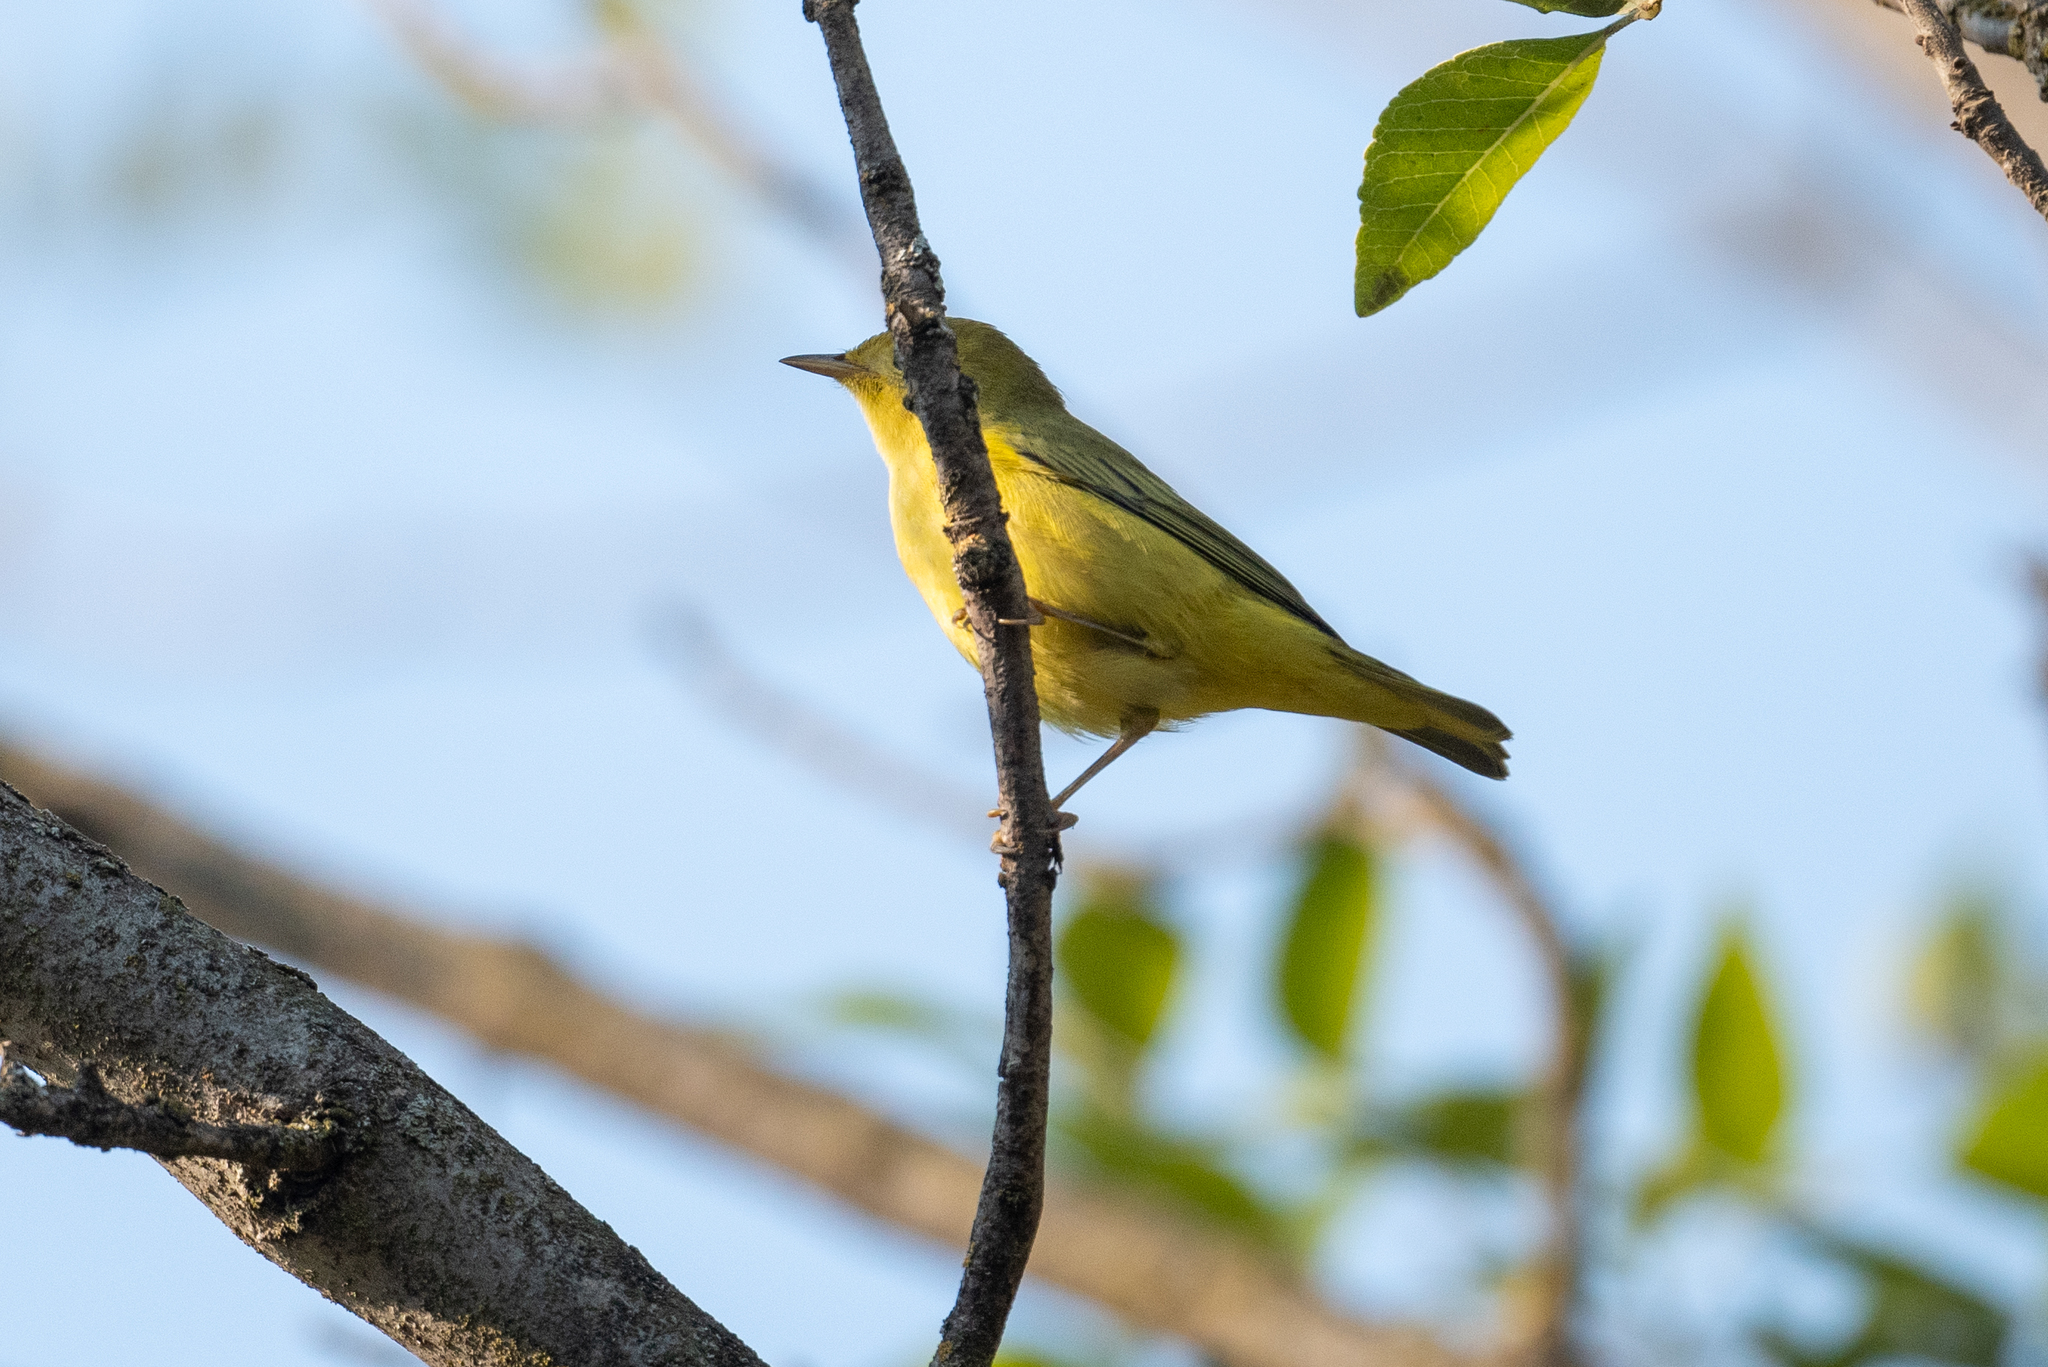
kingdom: Animalia
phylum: Chordata
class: Aves
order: Passeriformes
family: Parulidae
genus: Setophaga
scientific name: Setophaga petechia
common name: Yellow warbler
